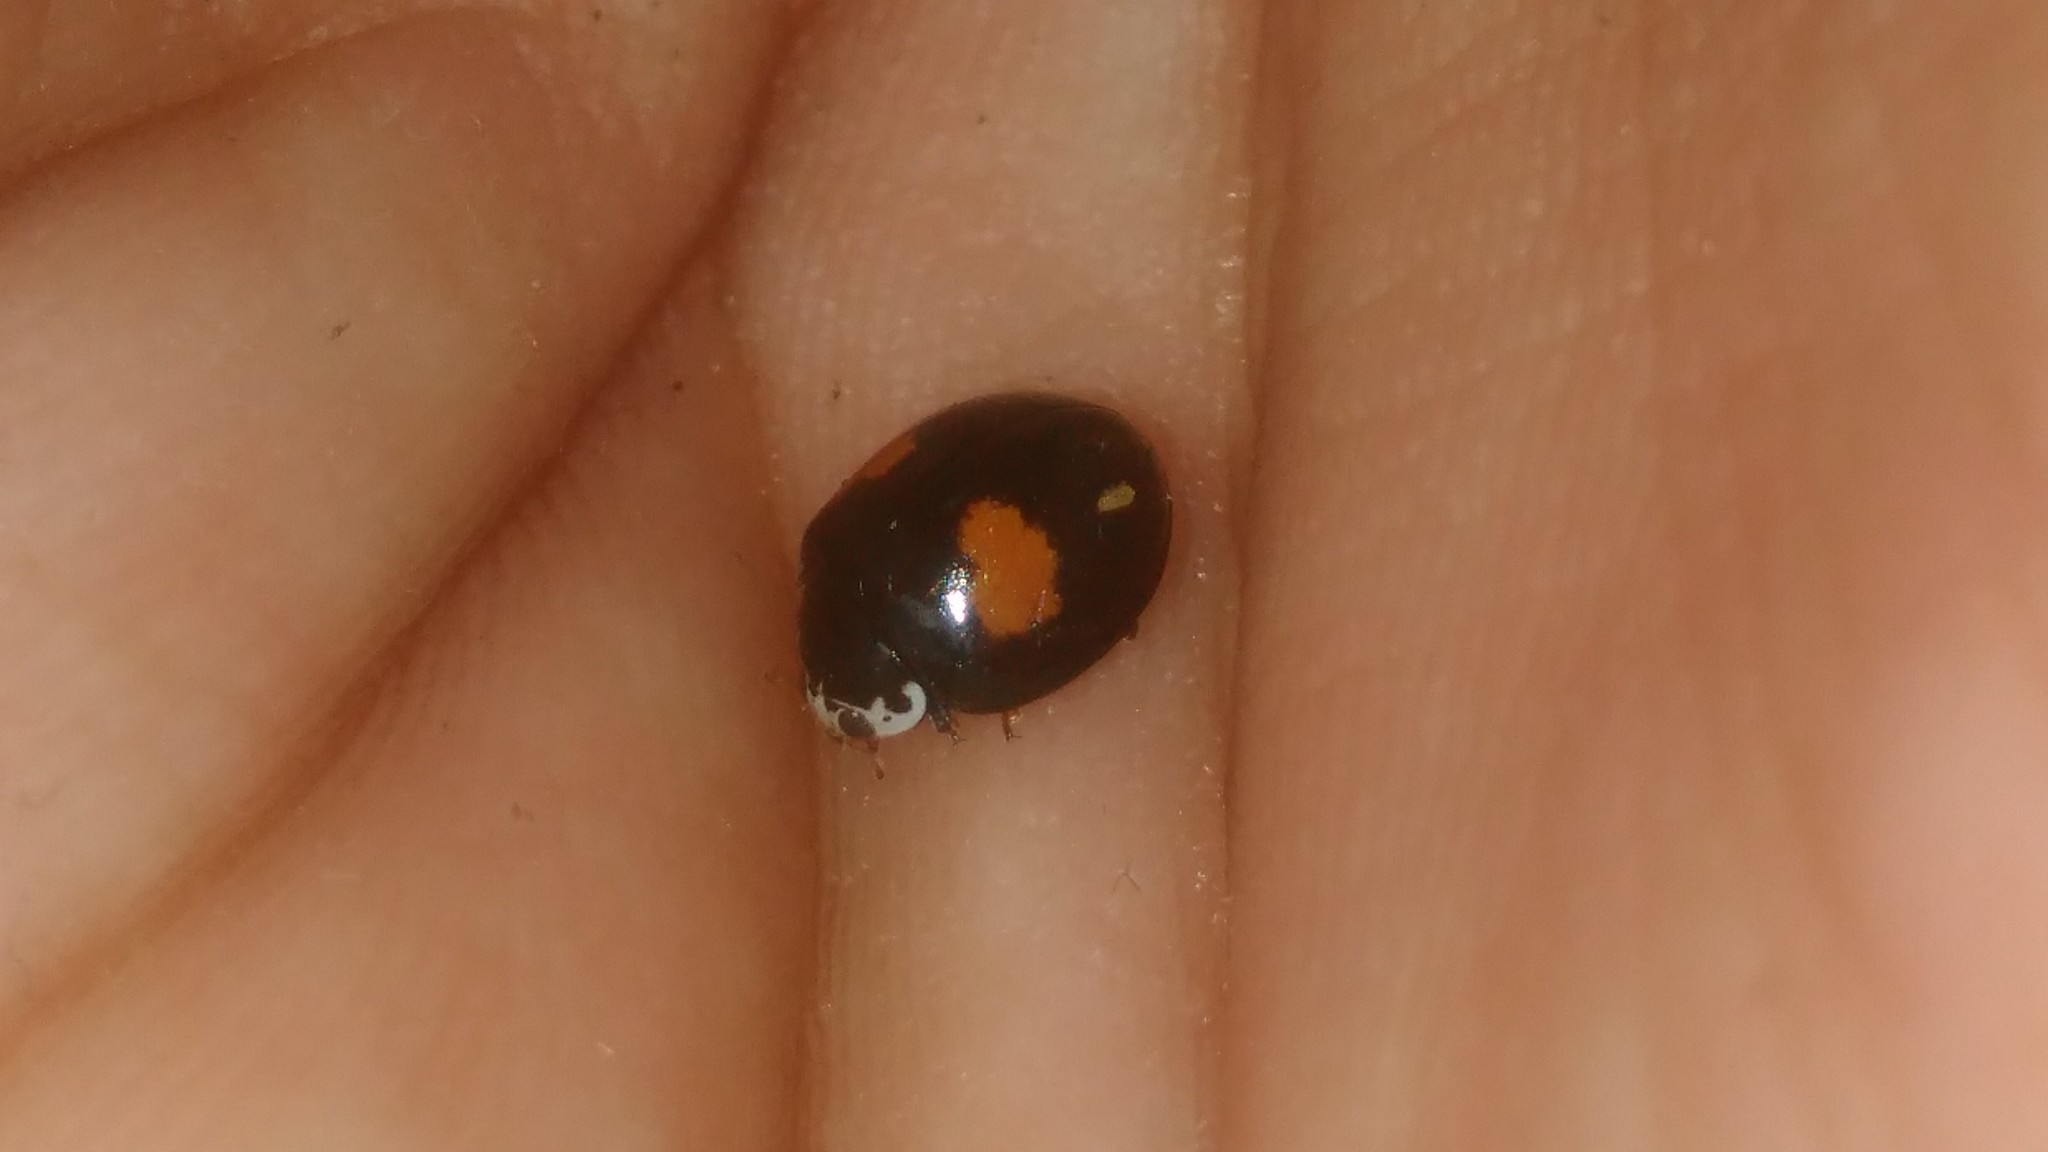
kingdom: Animalia
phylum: Arthropoda
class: Insecta
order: Coleoptera
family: Coccinellidae
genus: Olla
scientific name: Olla v-nigrum
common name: Ashy gray lady beetle
